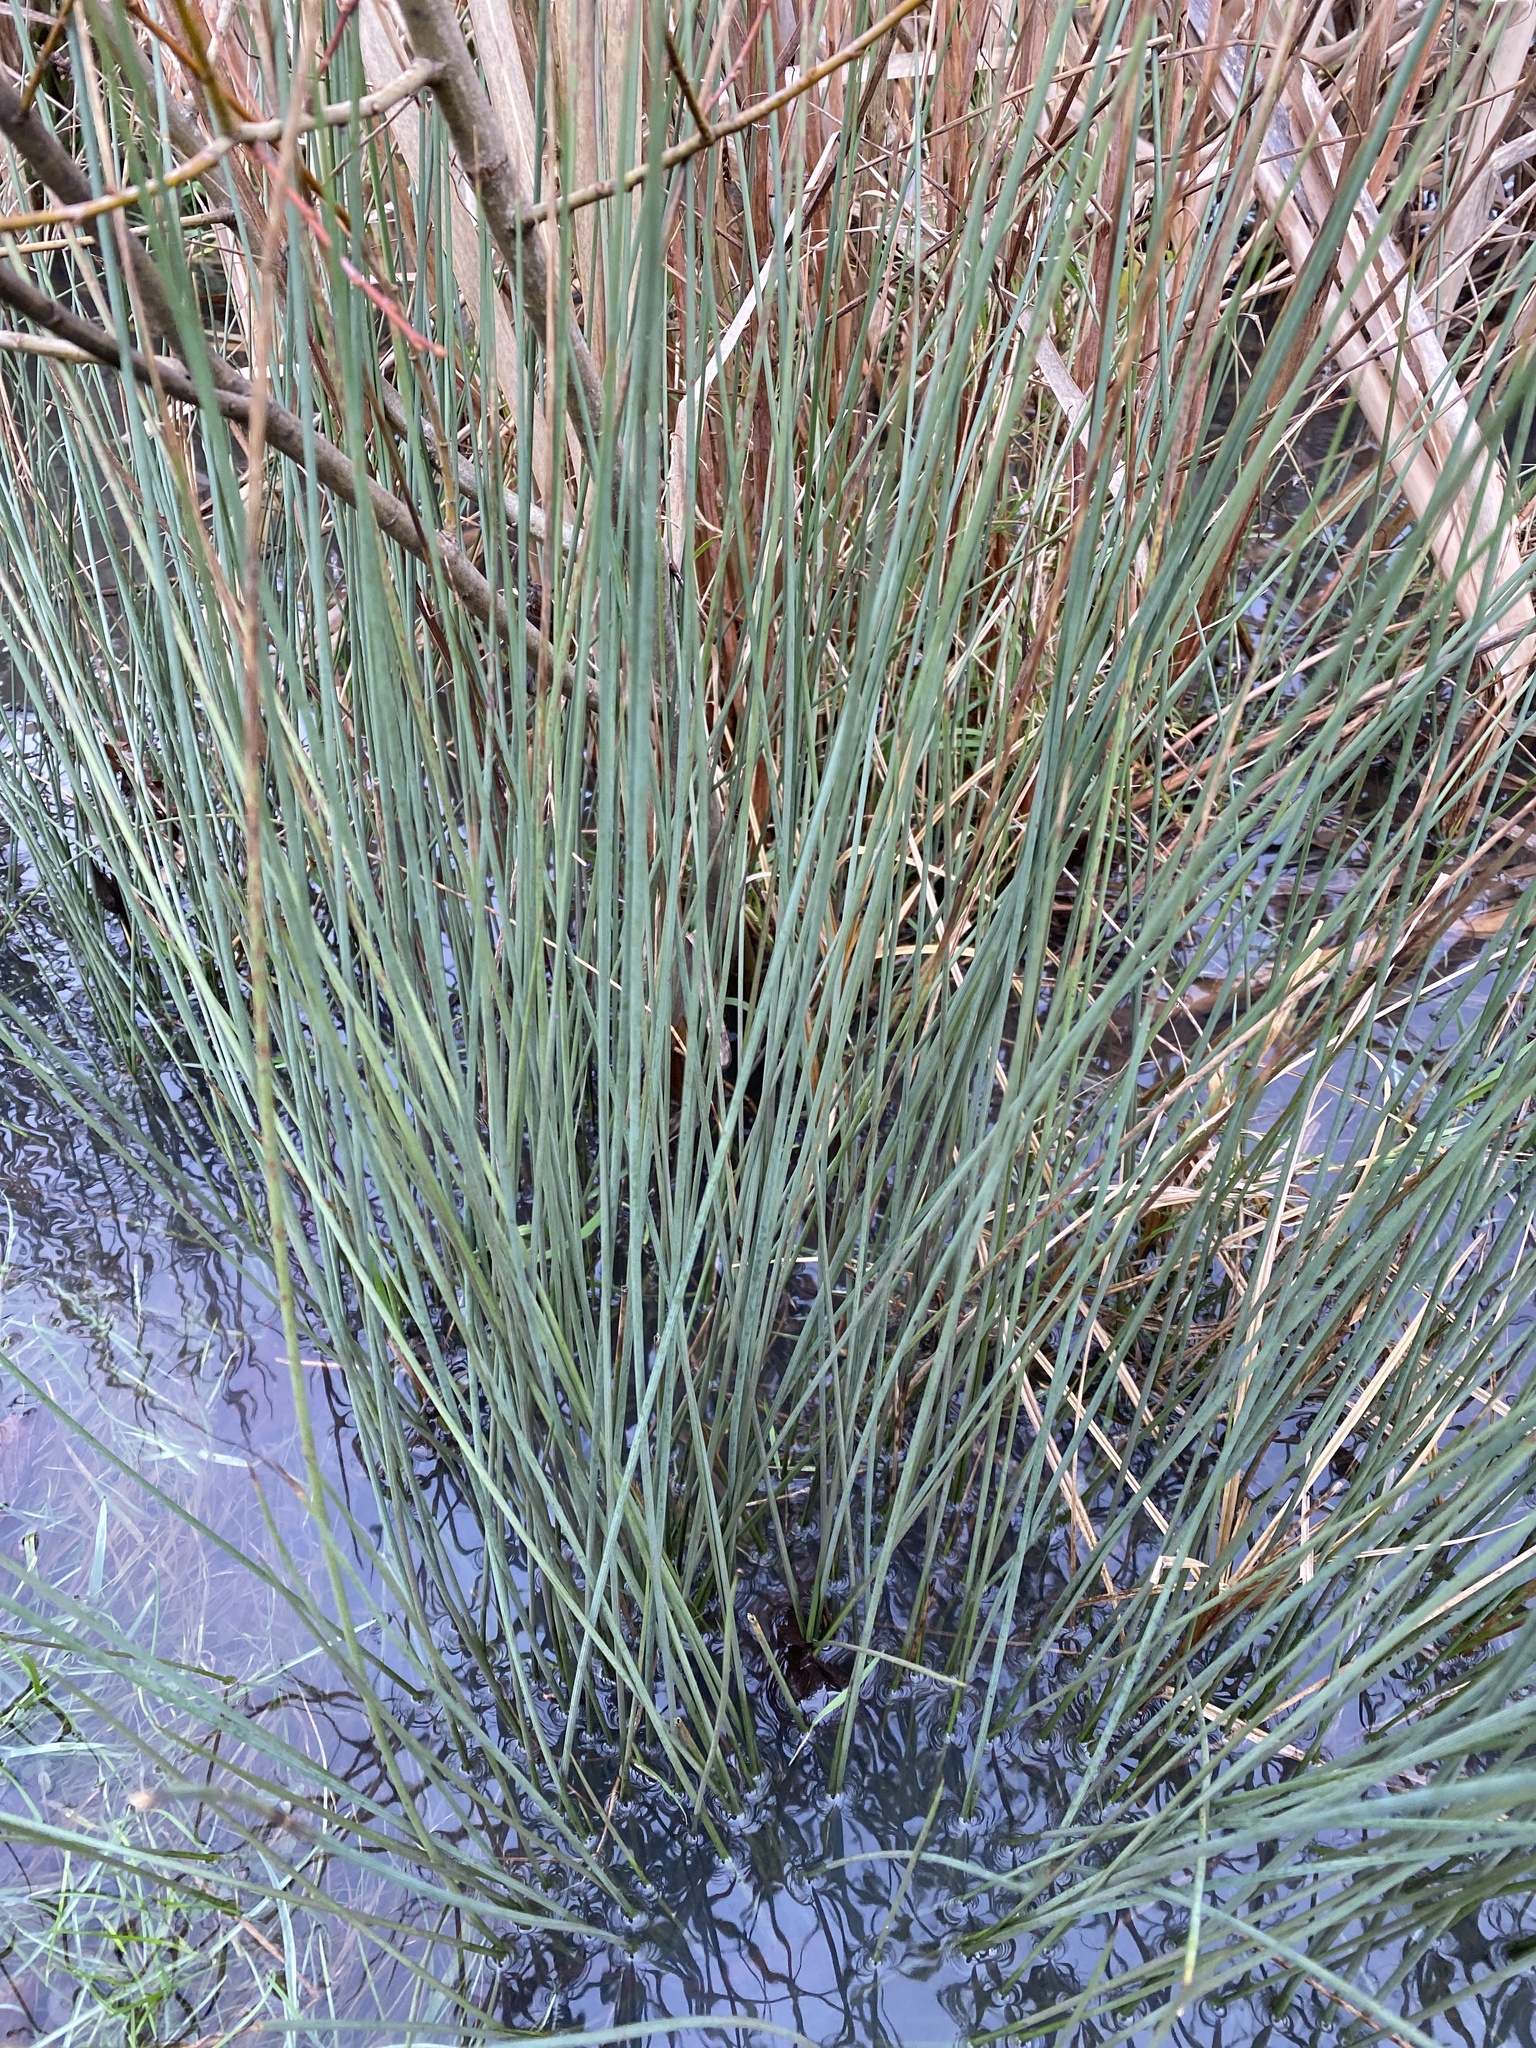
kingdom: Plantae
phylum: Tracheophyta
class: Liliopsida
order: Poales
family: Juncaceae
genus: Juncus
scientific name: Juncus inflexus
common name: Hard rush
